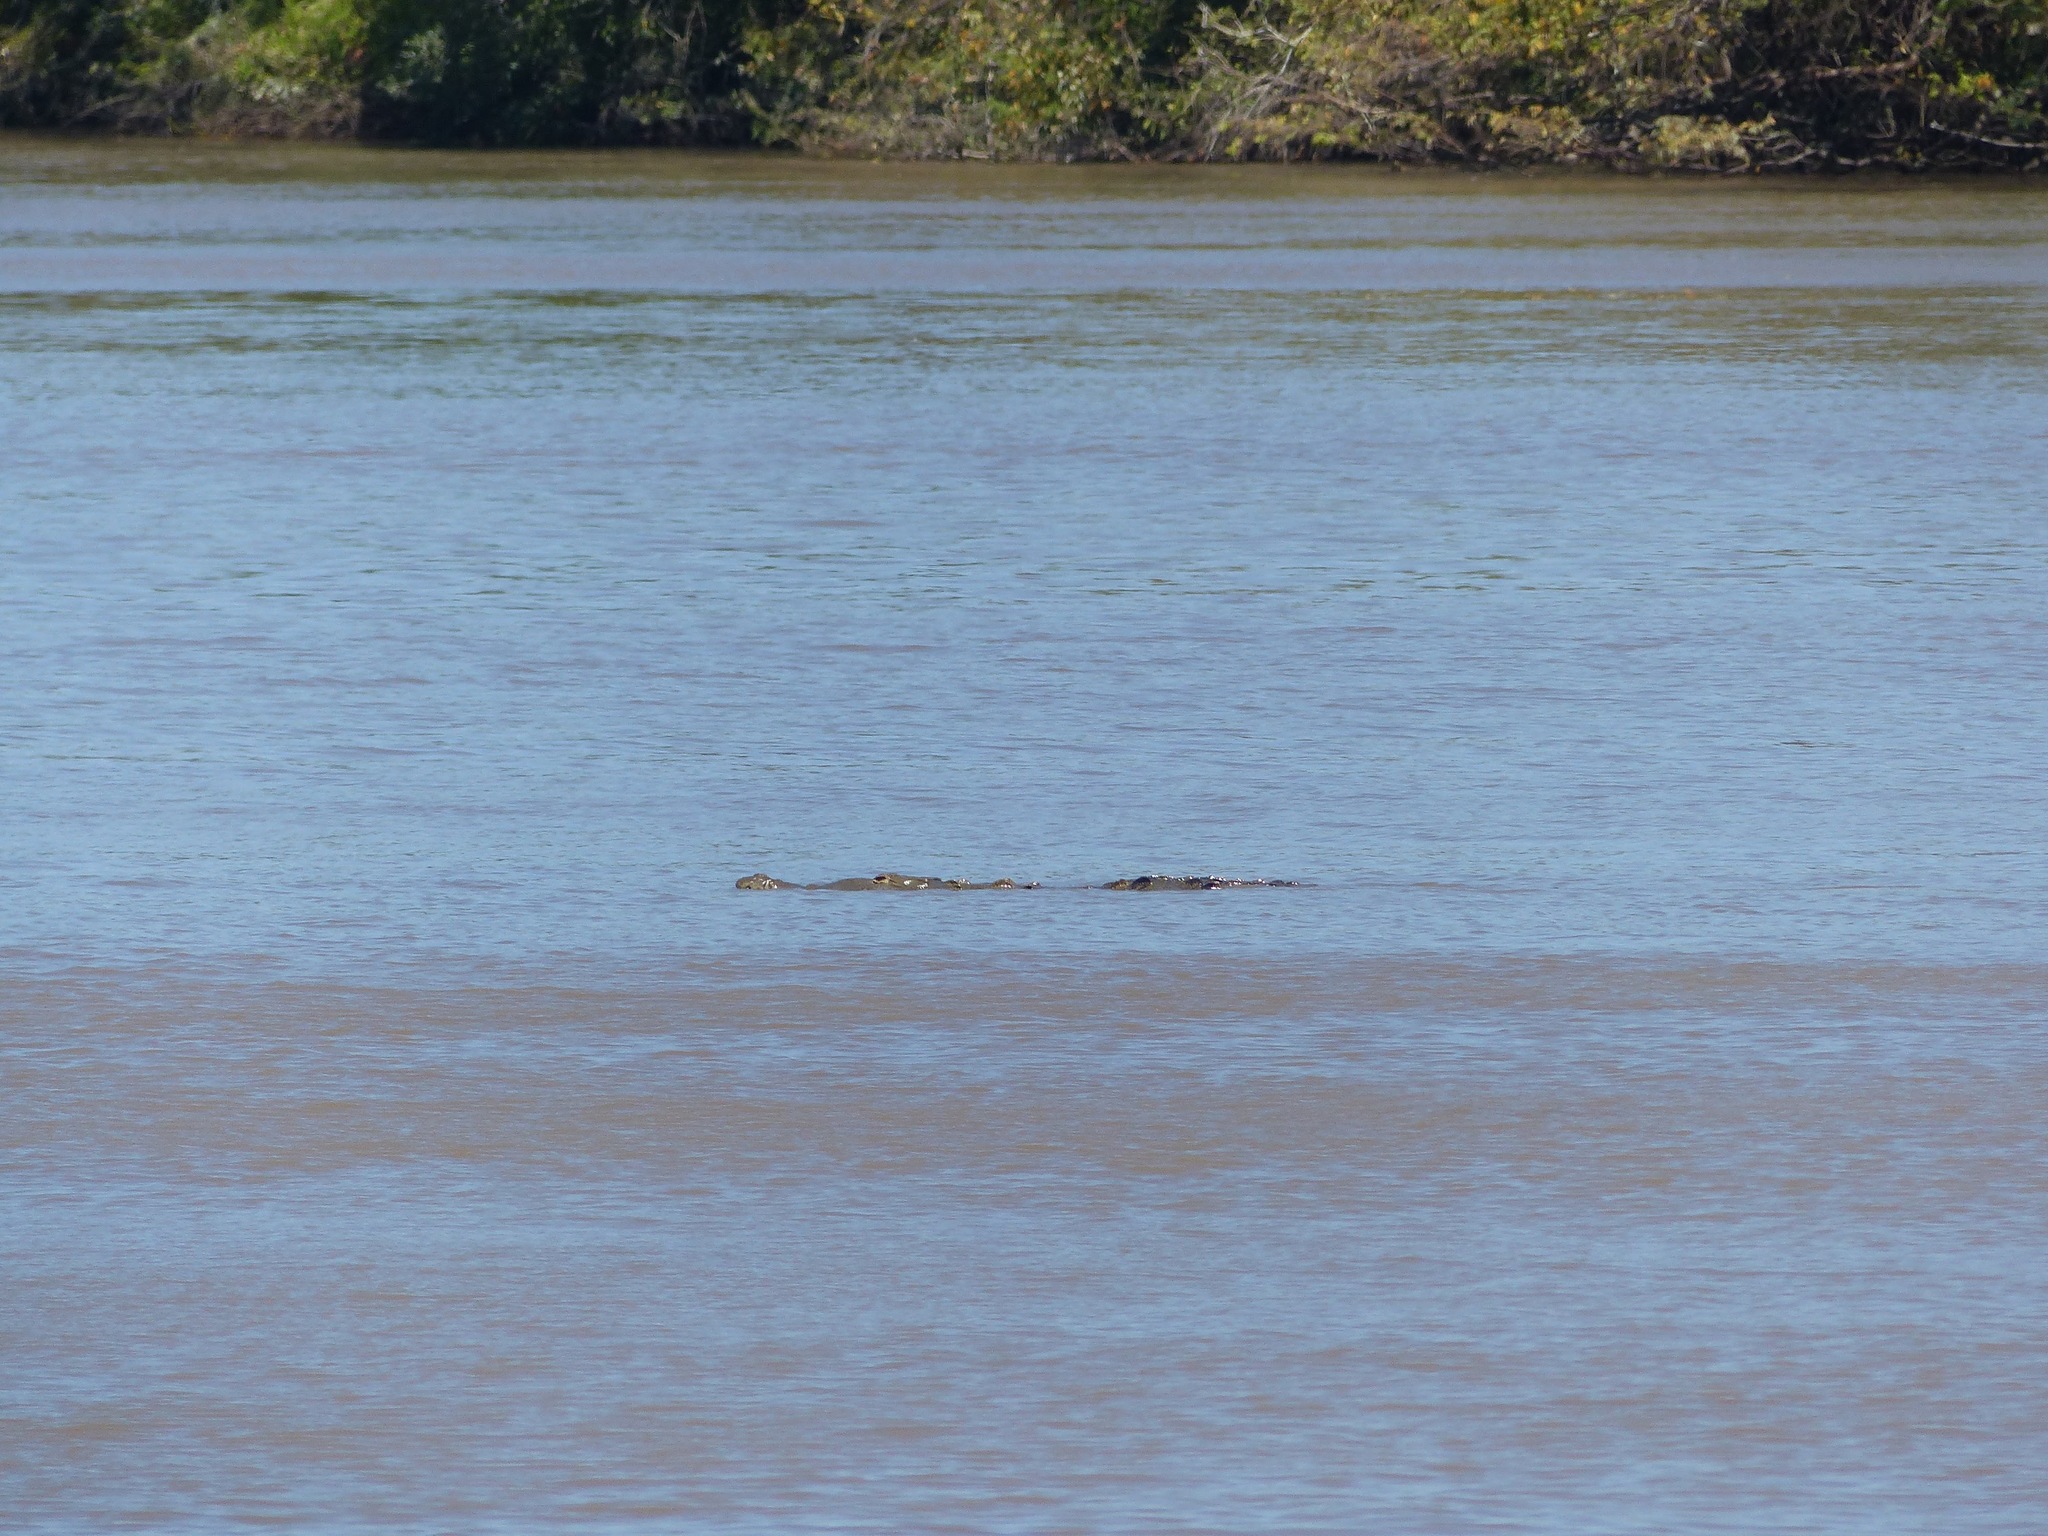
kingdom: Animalia
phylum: Chordata
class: Crocodylia
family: Crocodylidae
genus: Crocodylus
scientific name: Crocodylus acutus
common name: American crocodile
